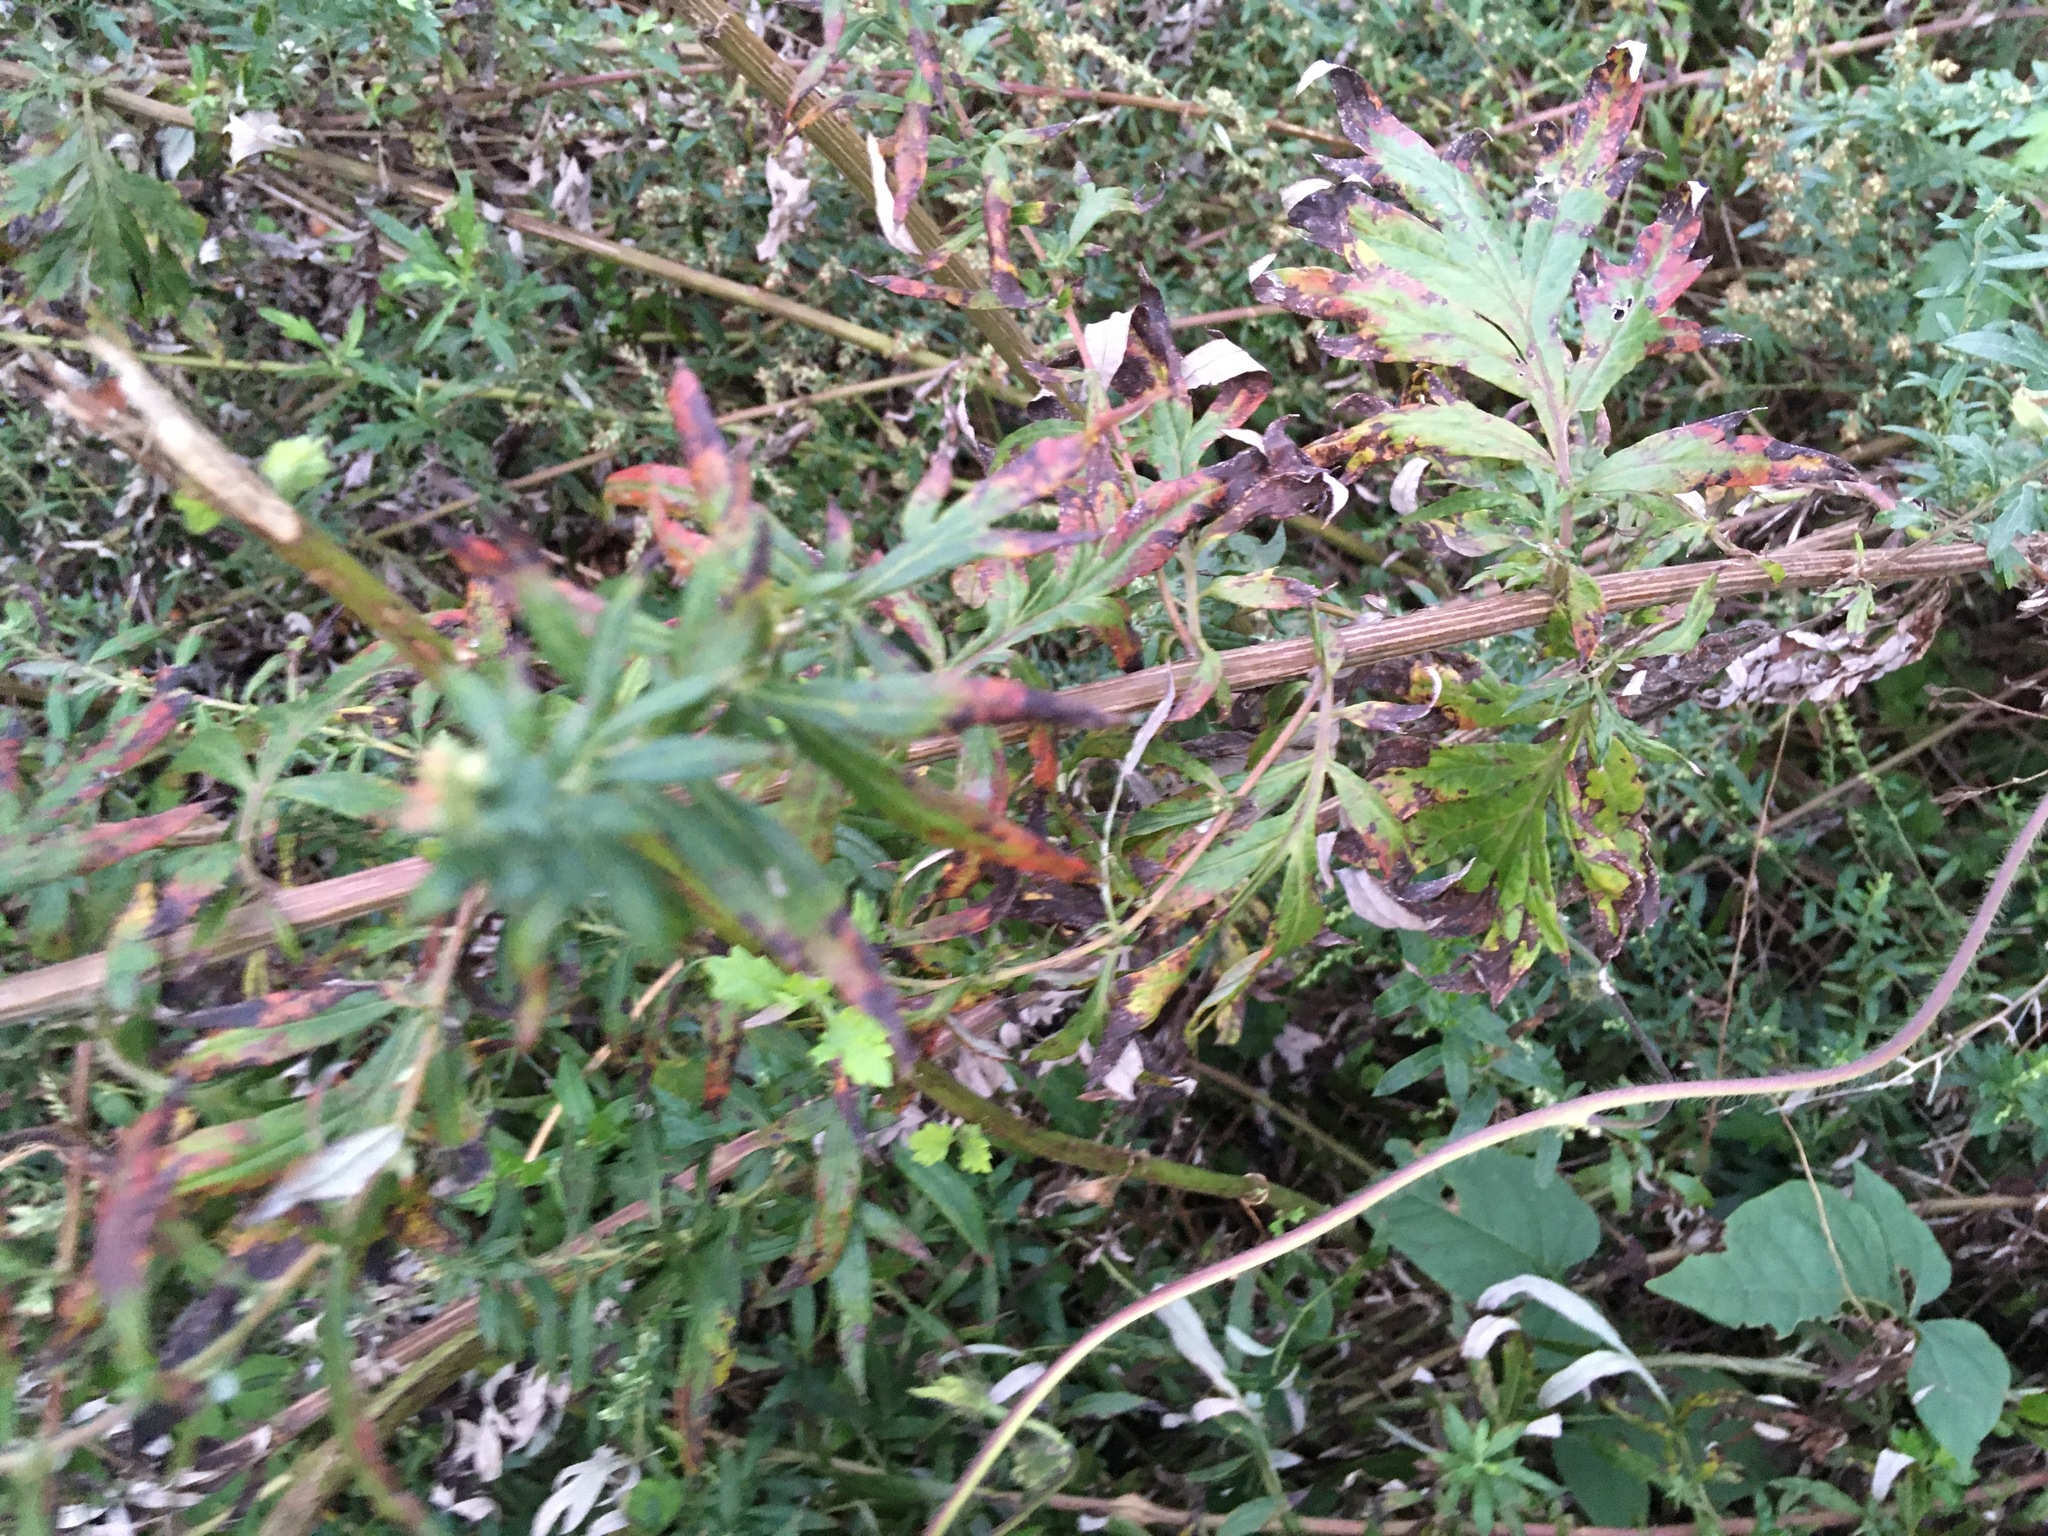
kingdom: Plantae
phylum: Tracheophyta
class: Magnoliopsida
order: Asterales
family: Asteraceae
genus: Artemisia
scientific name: Artemisia vulgaris
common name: Mugwort
